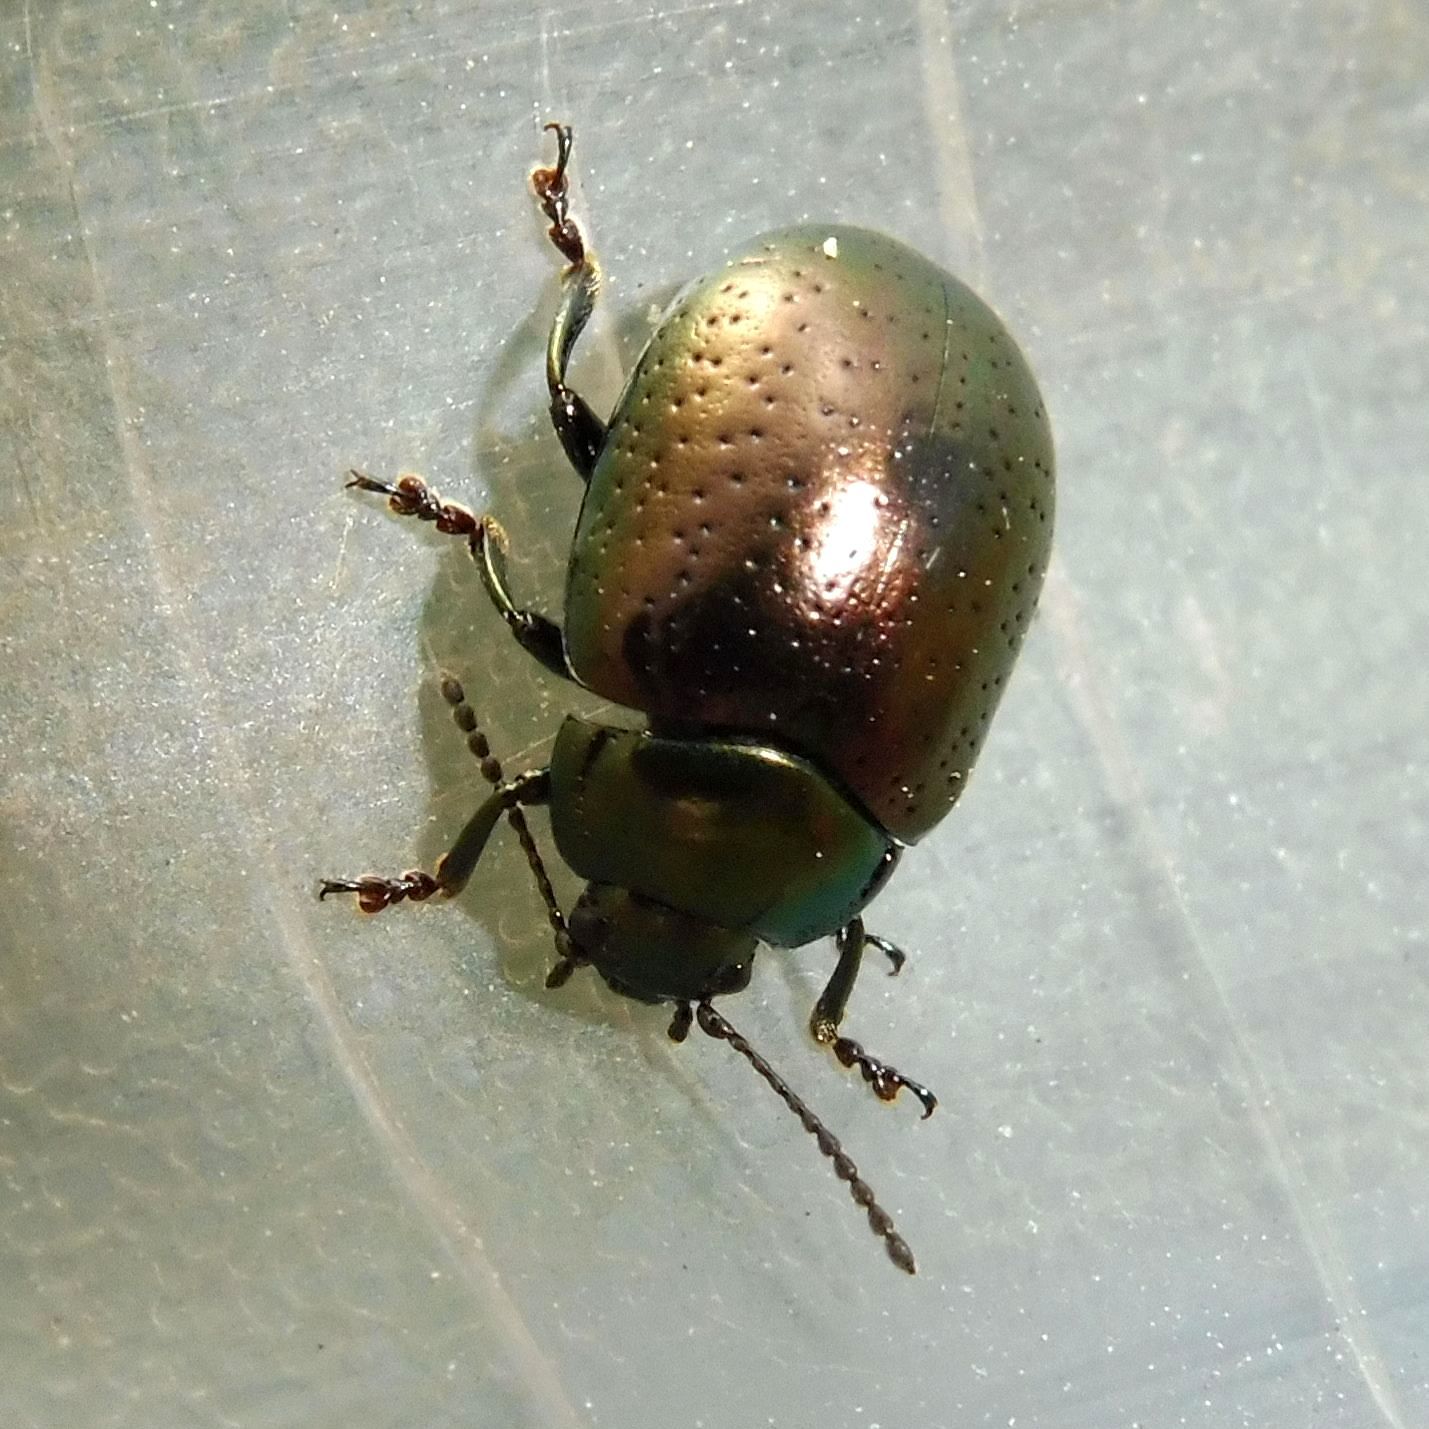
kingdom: Animalia
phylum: Arthropoda
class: Insecta
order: Coleoptera
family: Chrysomelidae
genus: Chrysolina
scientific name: Chrysolina hyperici
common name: St. johnswort beetle
